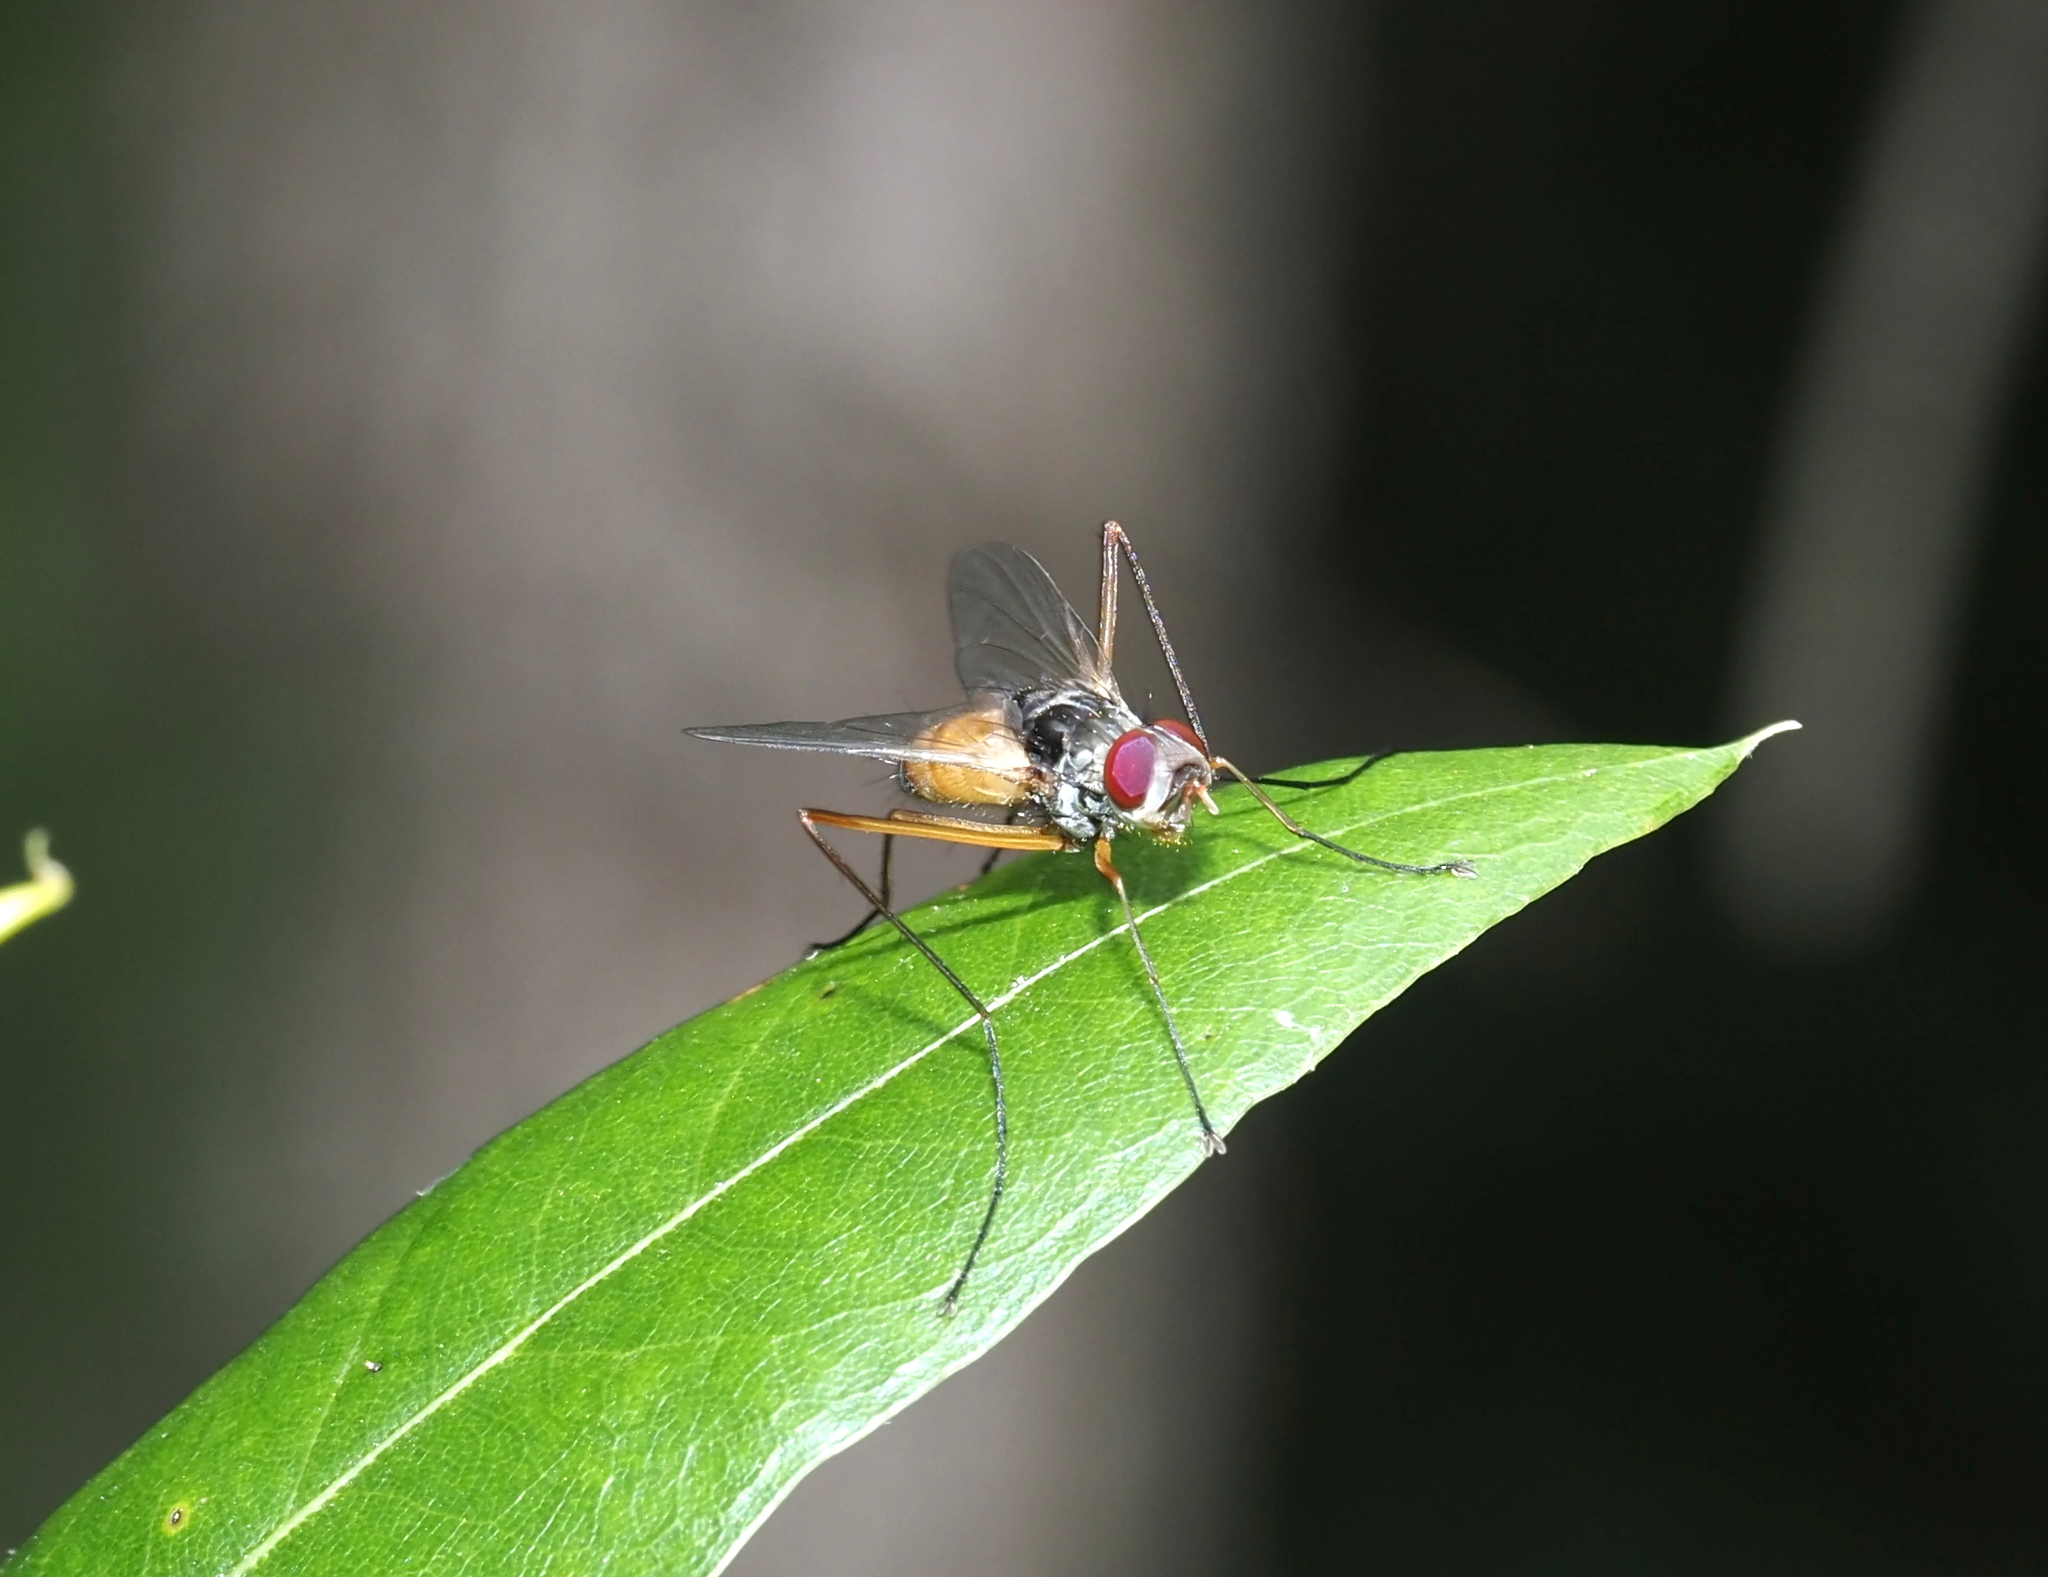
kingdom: Animalia
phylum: Arthropoda
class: Insecta
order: Diptera
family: Tachinidae
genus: Cholomyia
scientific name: Cholomyia inaequipes
